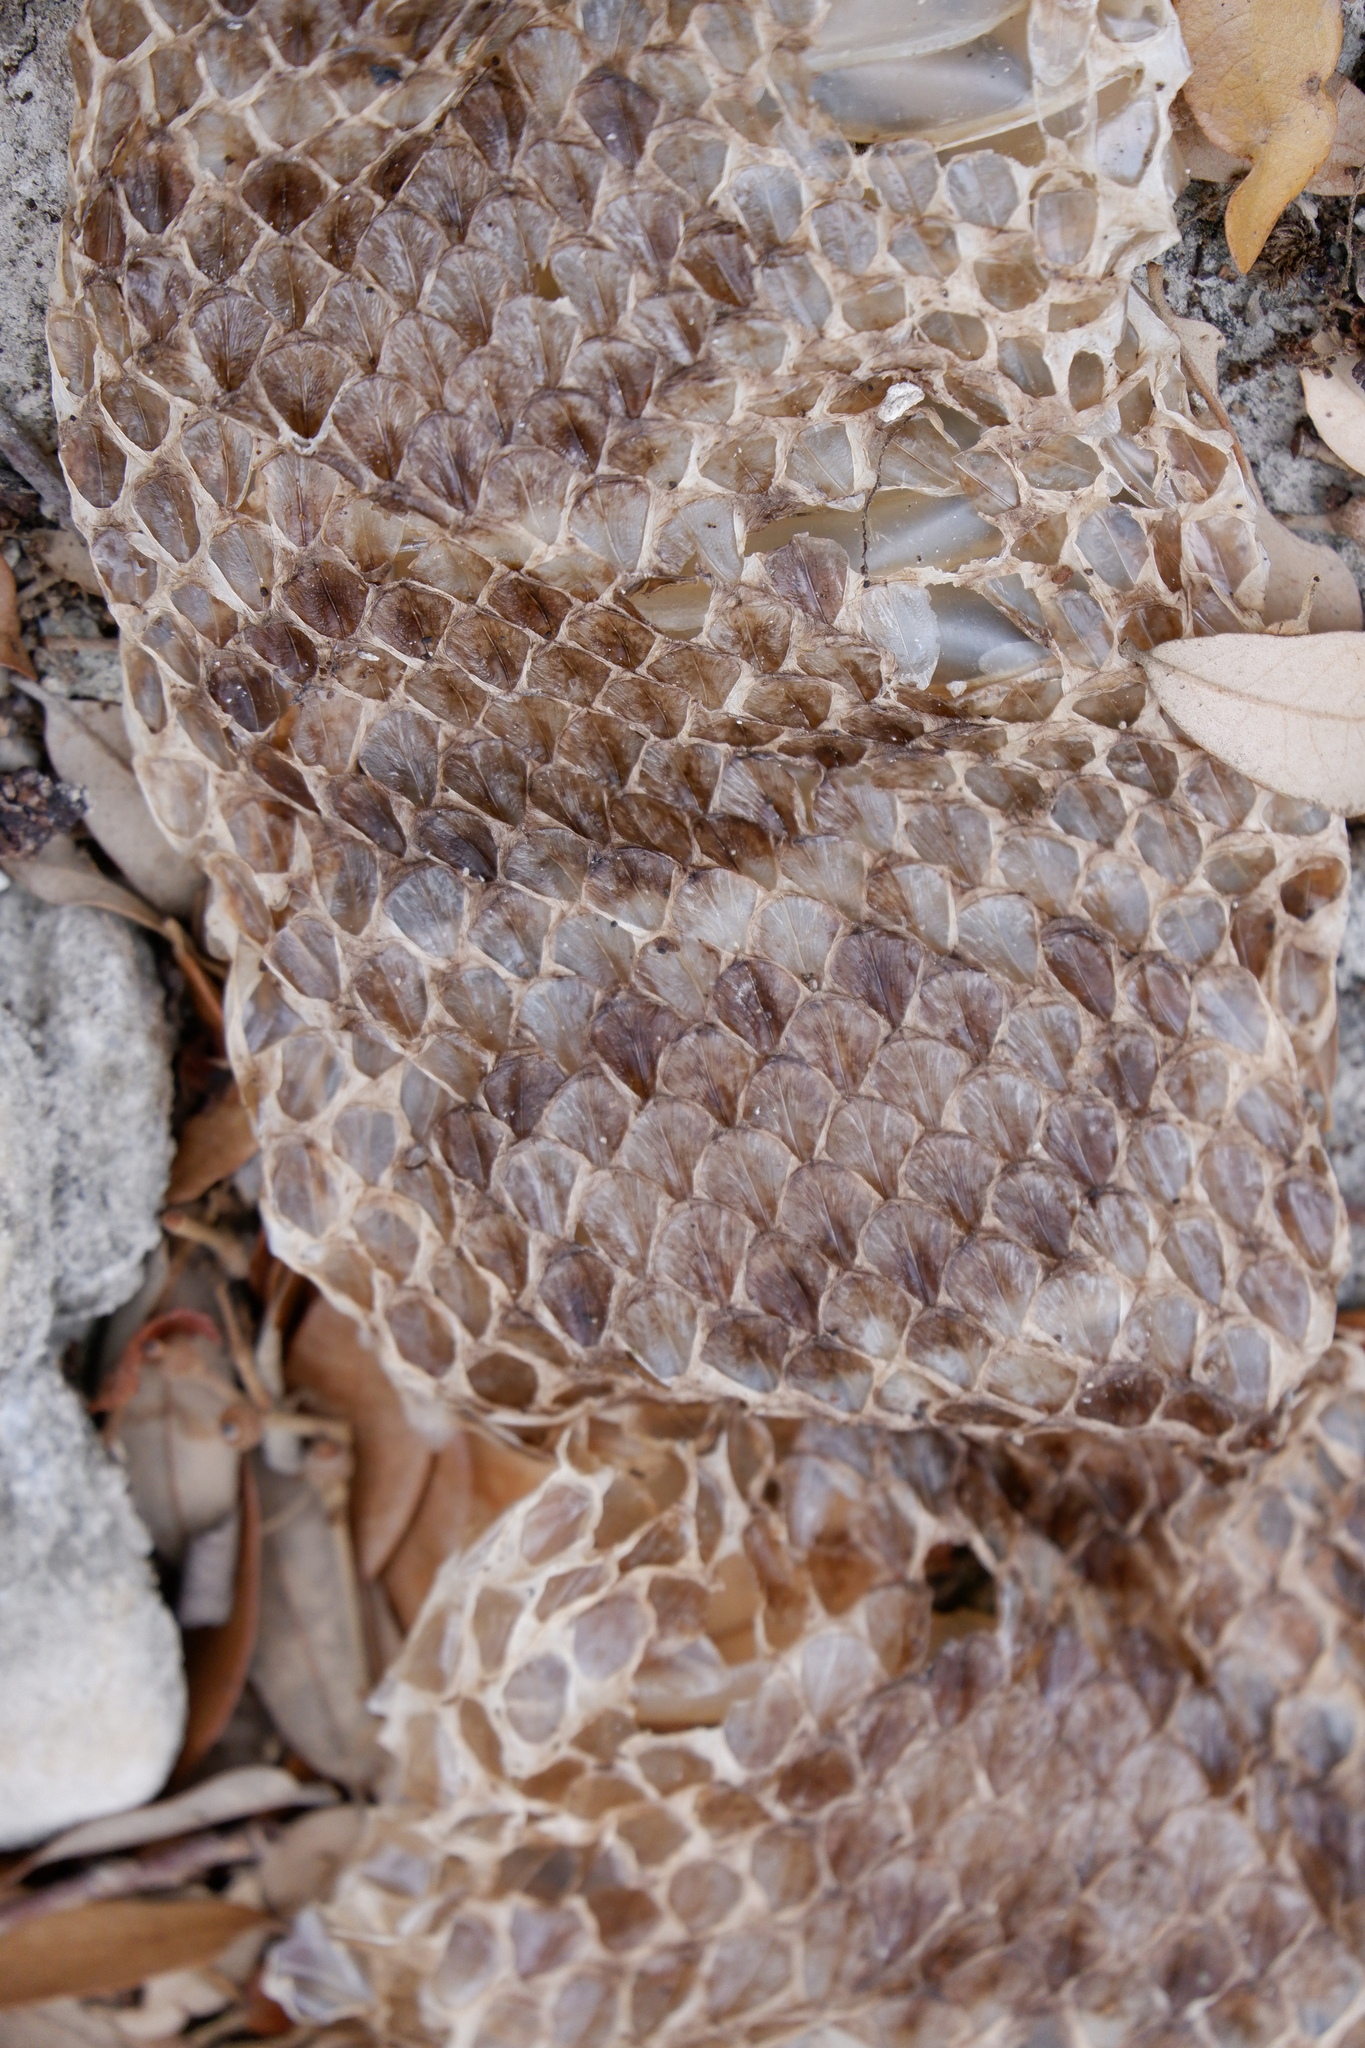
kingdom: Animalia
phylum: Chordata
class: Squamata
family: Viperidae
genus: Crotalus
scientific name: Crotalus atrox
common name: Western diamond-backed rattlesnake
